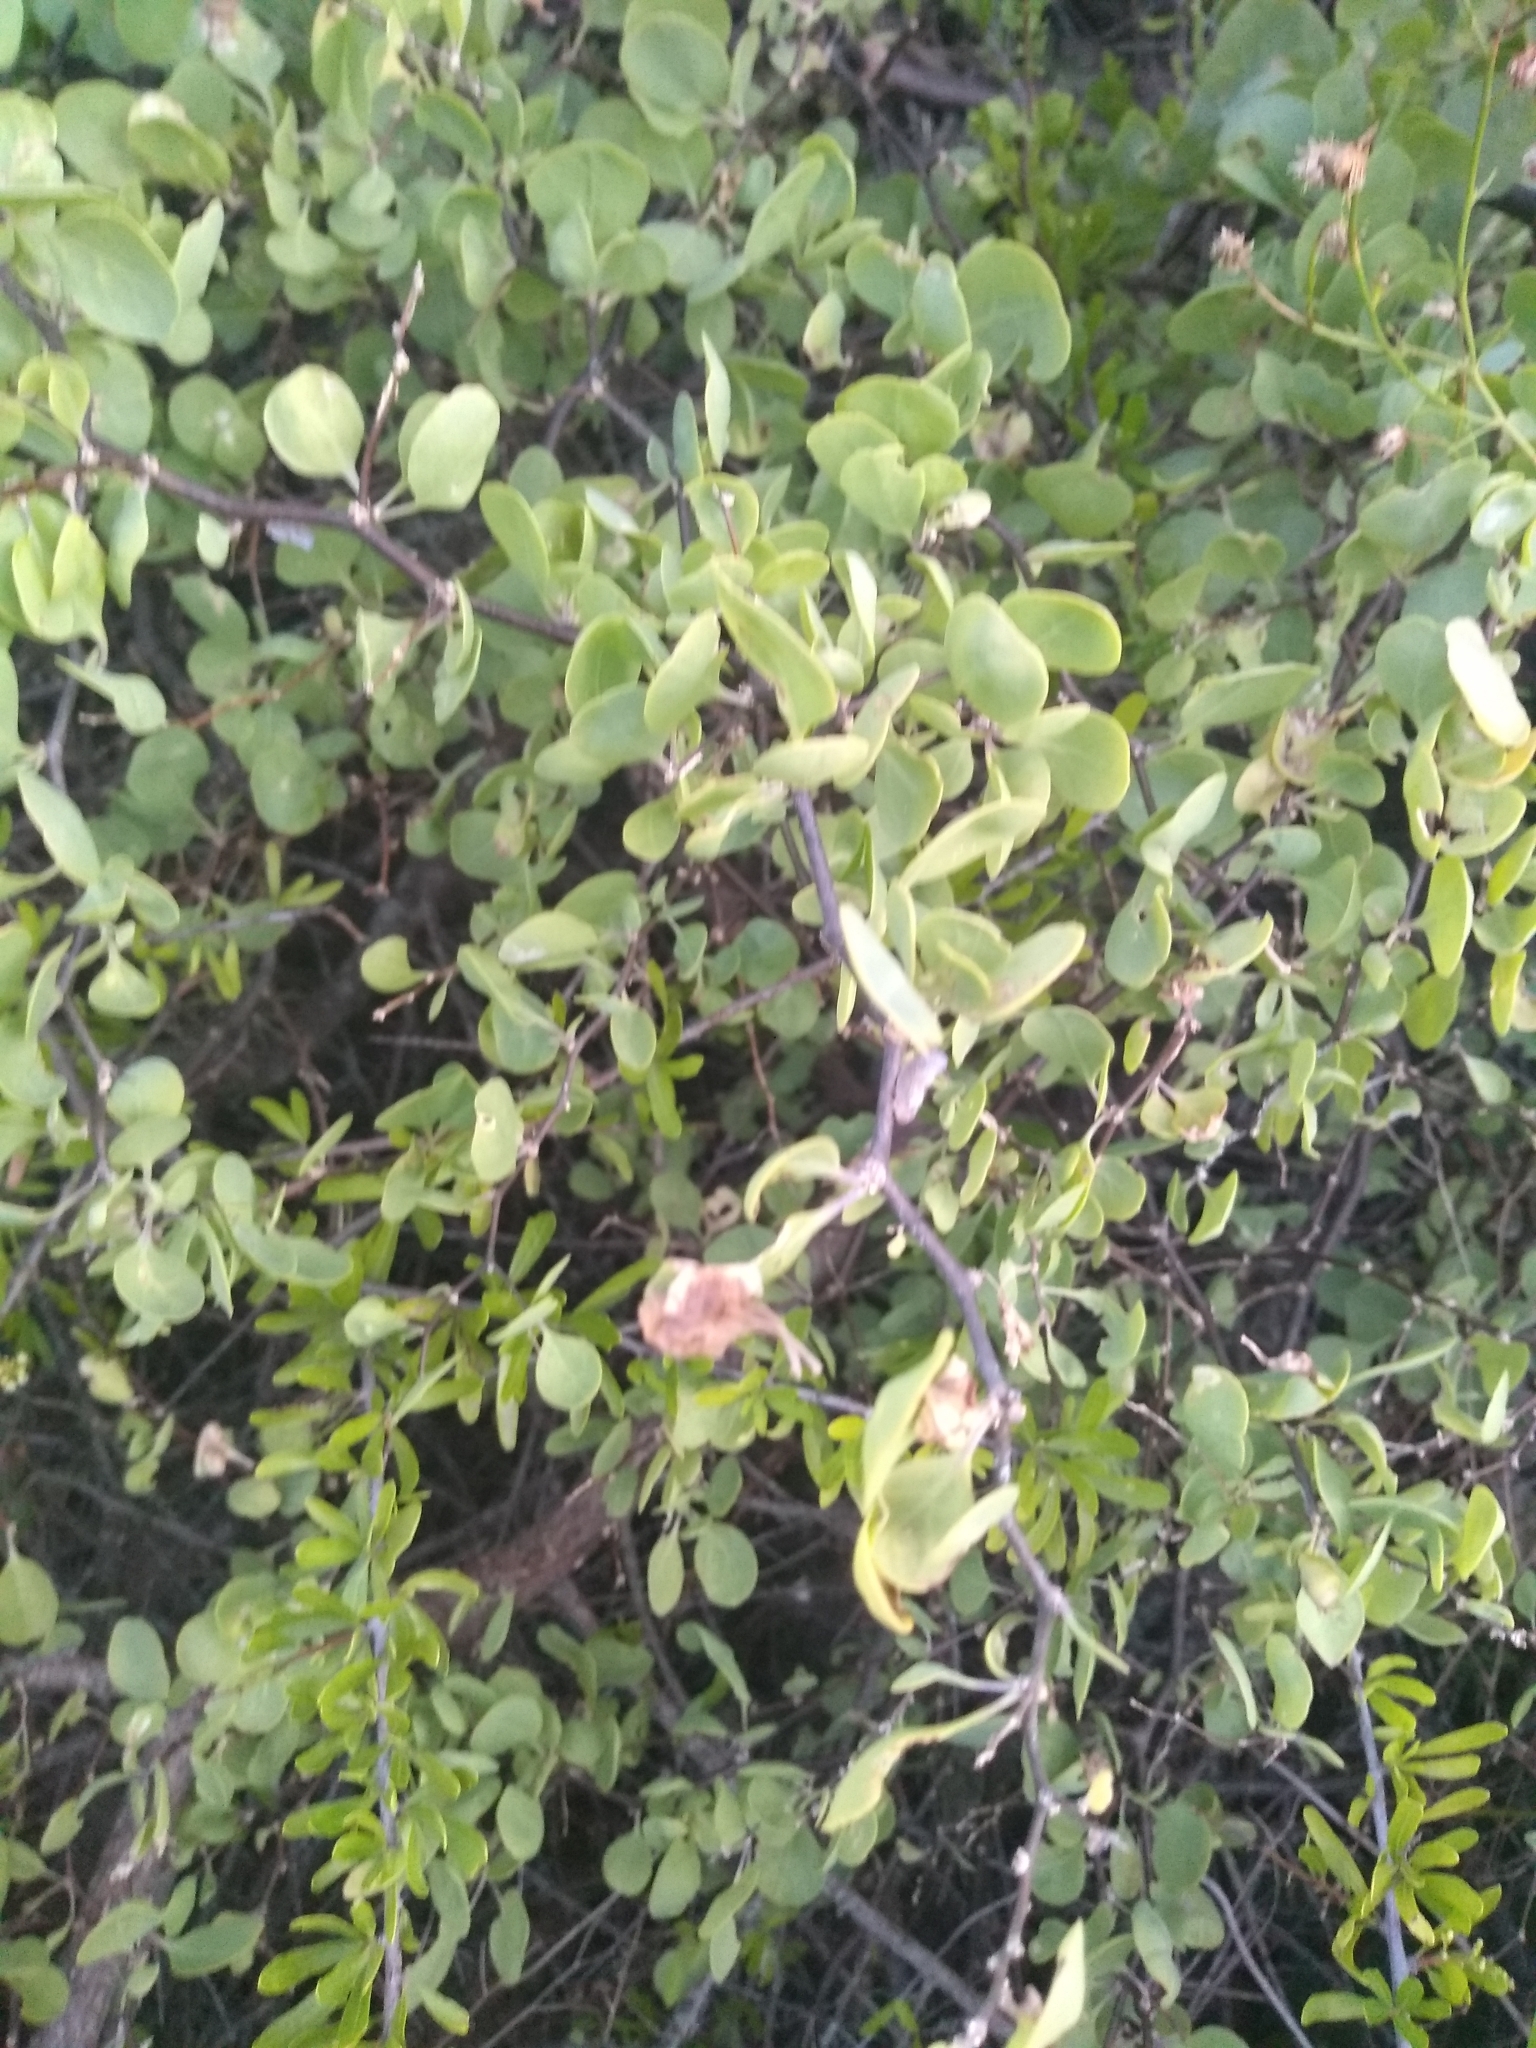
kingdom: Plantae
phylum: Tracheophyta
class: Magnoliopsida
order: Solanales
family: Solanaceae
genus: Lycium
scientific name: Lycium boerhaaviifolium
